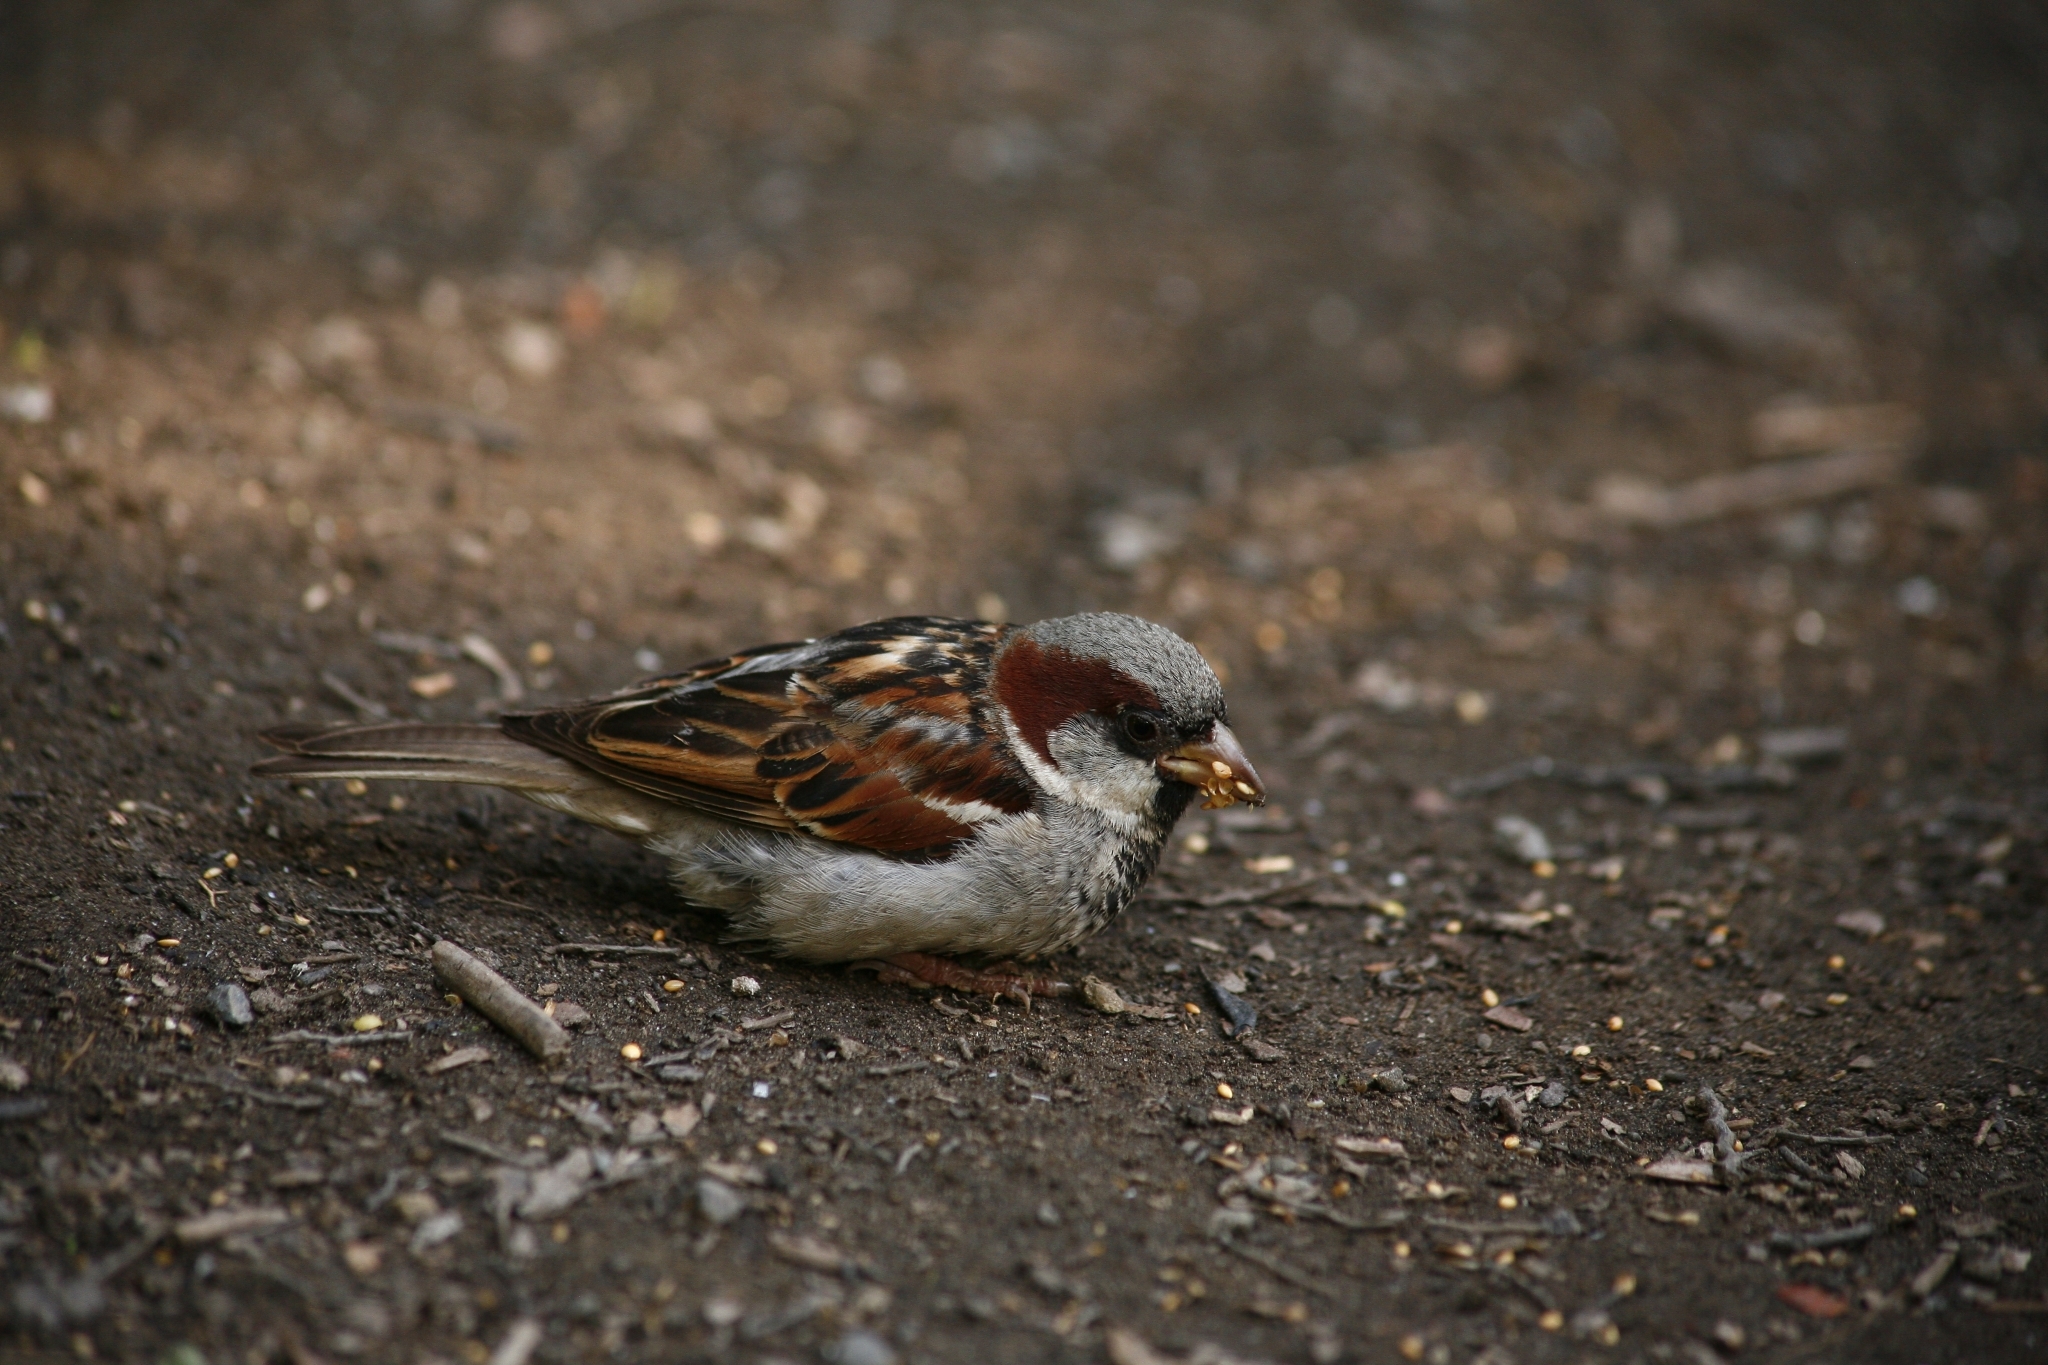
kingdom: Animalia
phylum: Chordata
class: Aves
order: Passeriformes
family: Passeridae
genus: Passer
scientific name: Passer domesticus
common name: House sparrow
